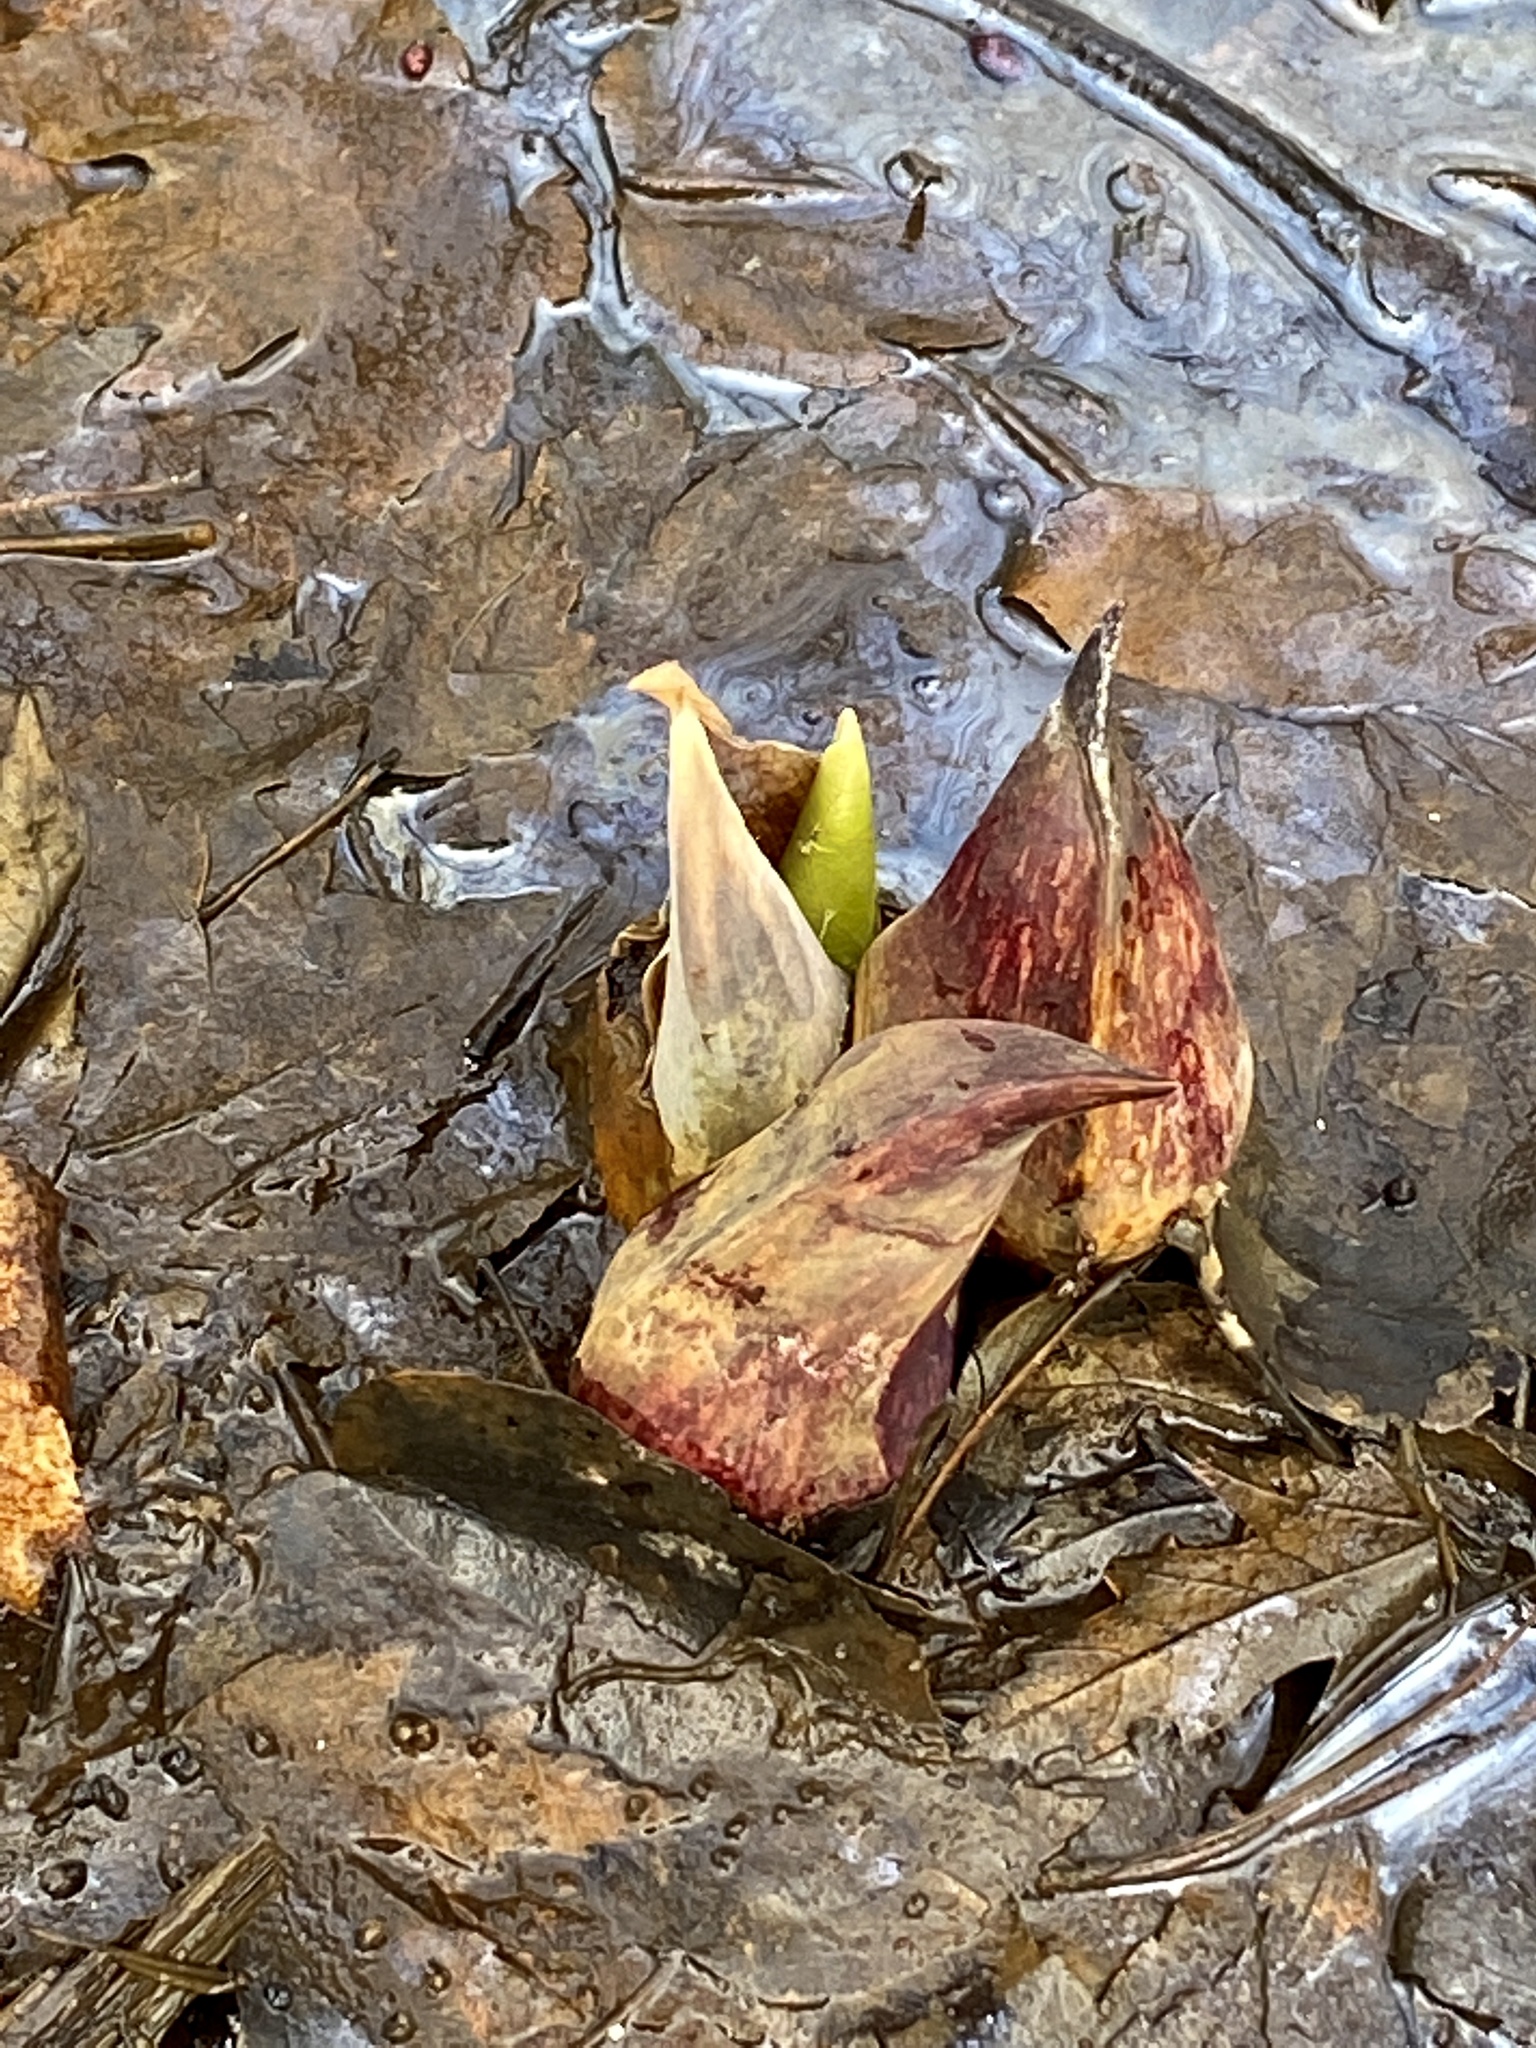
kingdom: Plantae
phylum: Tracheophyta
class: Liliopsida
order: Alismatales
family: Araceae
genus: Symplocarpus
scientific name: Symplocarpus foetidus
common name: Eastern skunk cabbage
